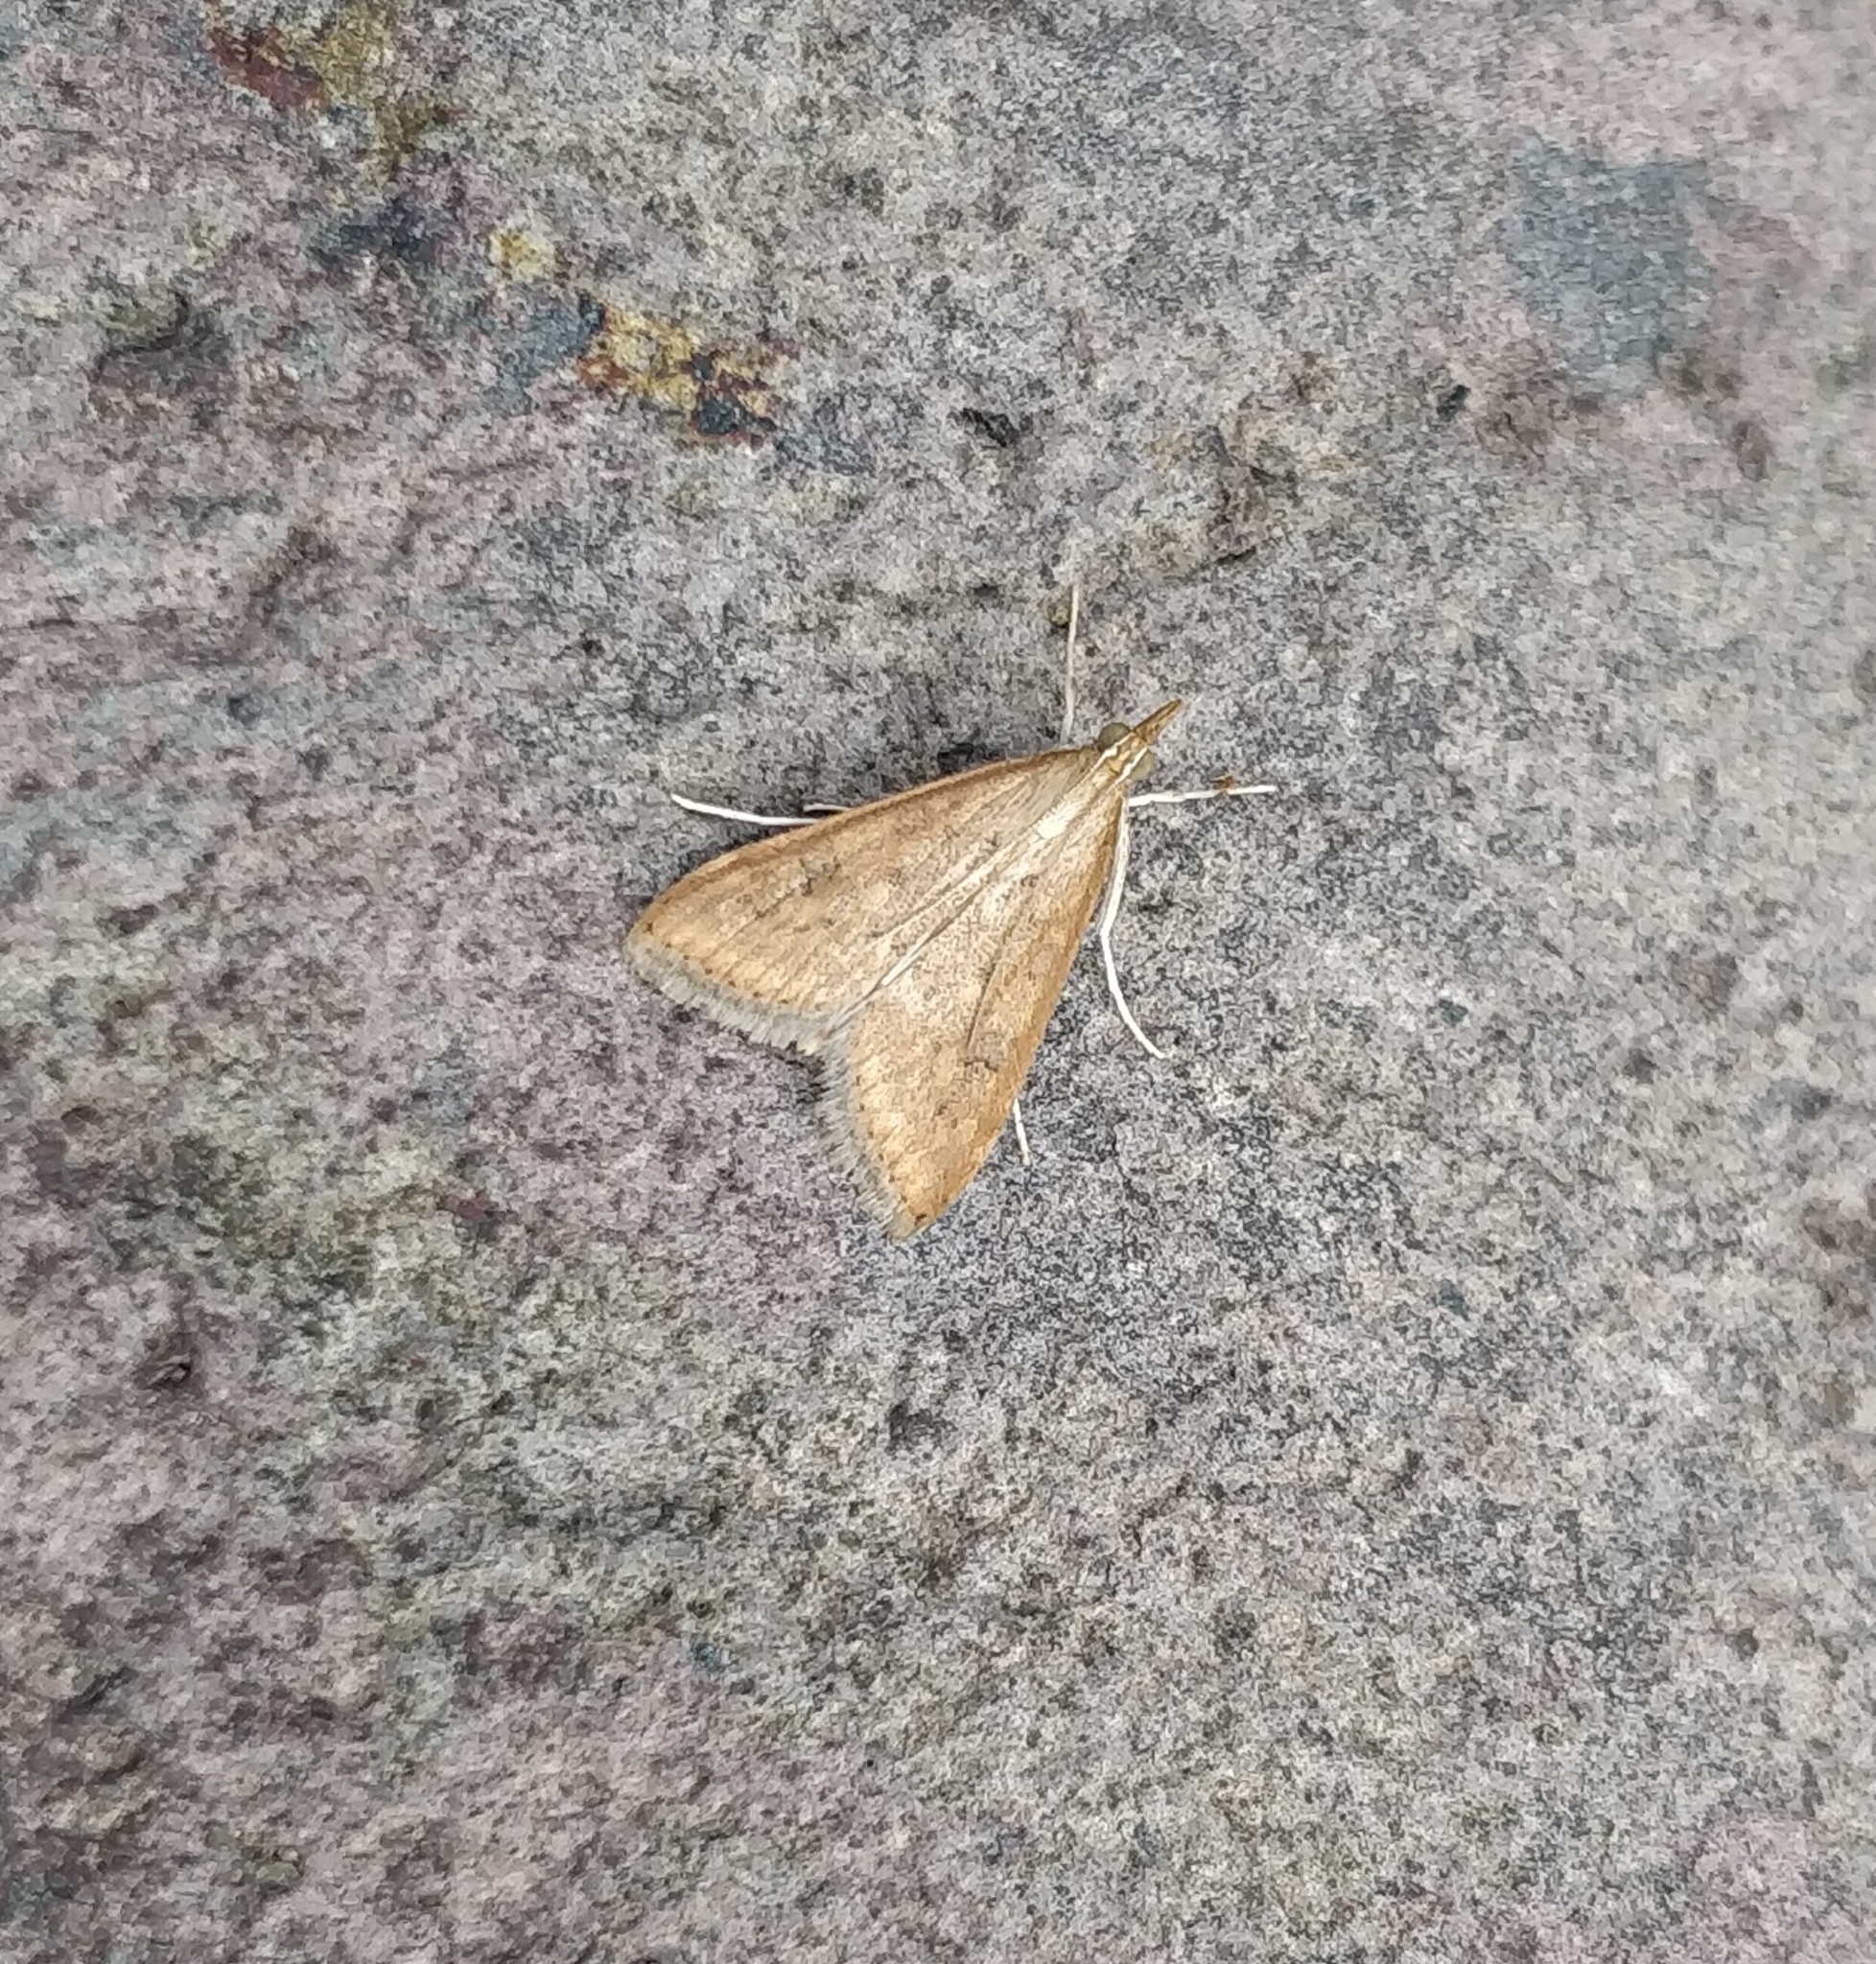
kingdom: Animalia
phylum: Arthropoda
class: Insecta
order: Lepidoptera
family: Crambidae
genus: Udea
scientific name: Udea ferrugalis
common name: Rusty dot
